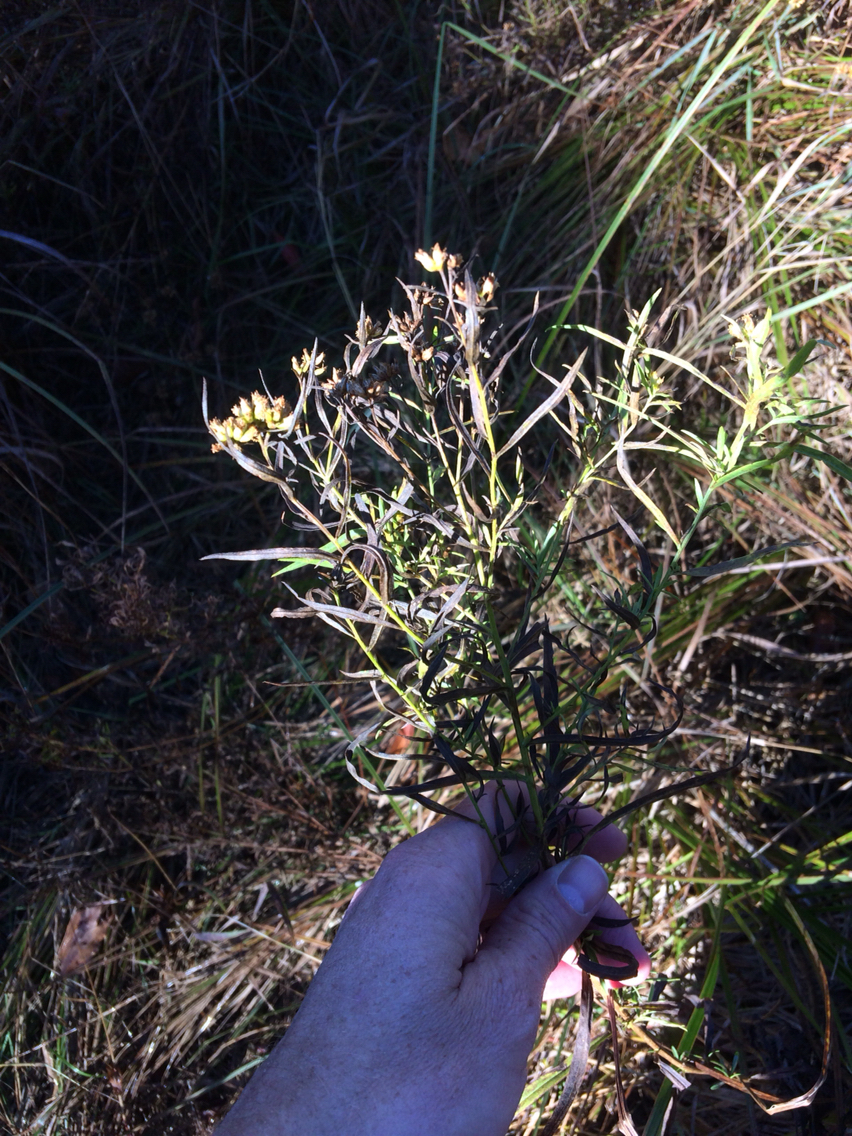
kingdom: Plantae
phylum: Tracheophyta
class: Magnoliopsida
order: Asterales
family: Asteraceae
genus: Euthamia
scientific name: Euthamia graminifolia
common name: Common goldentop
